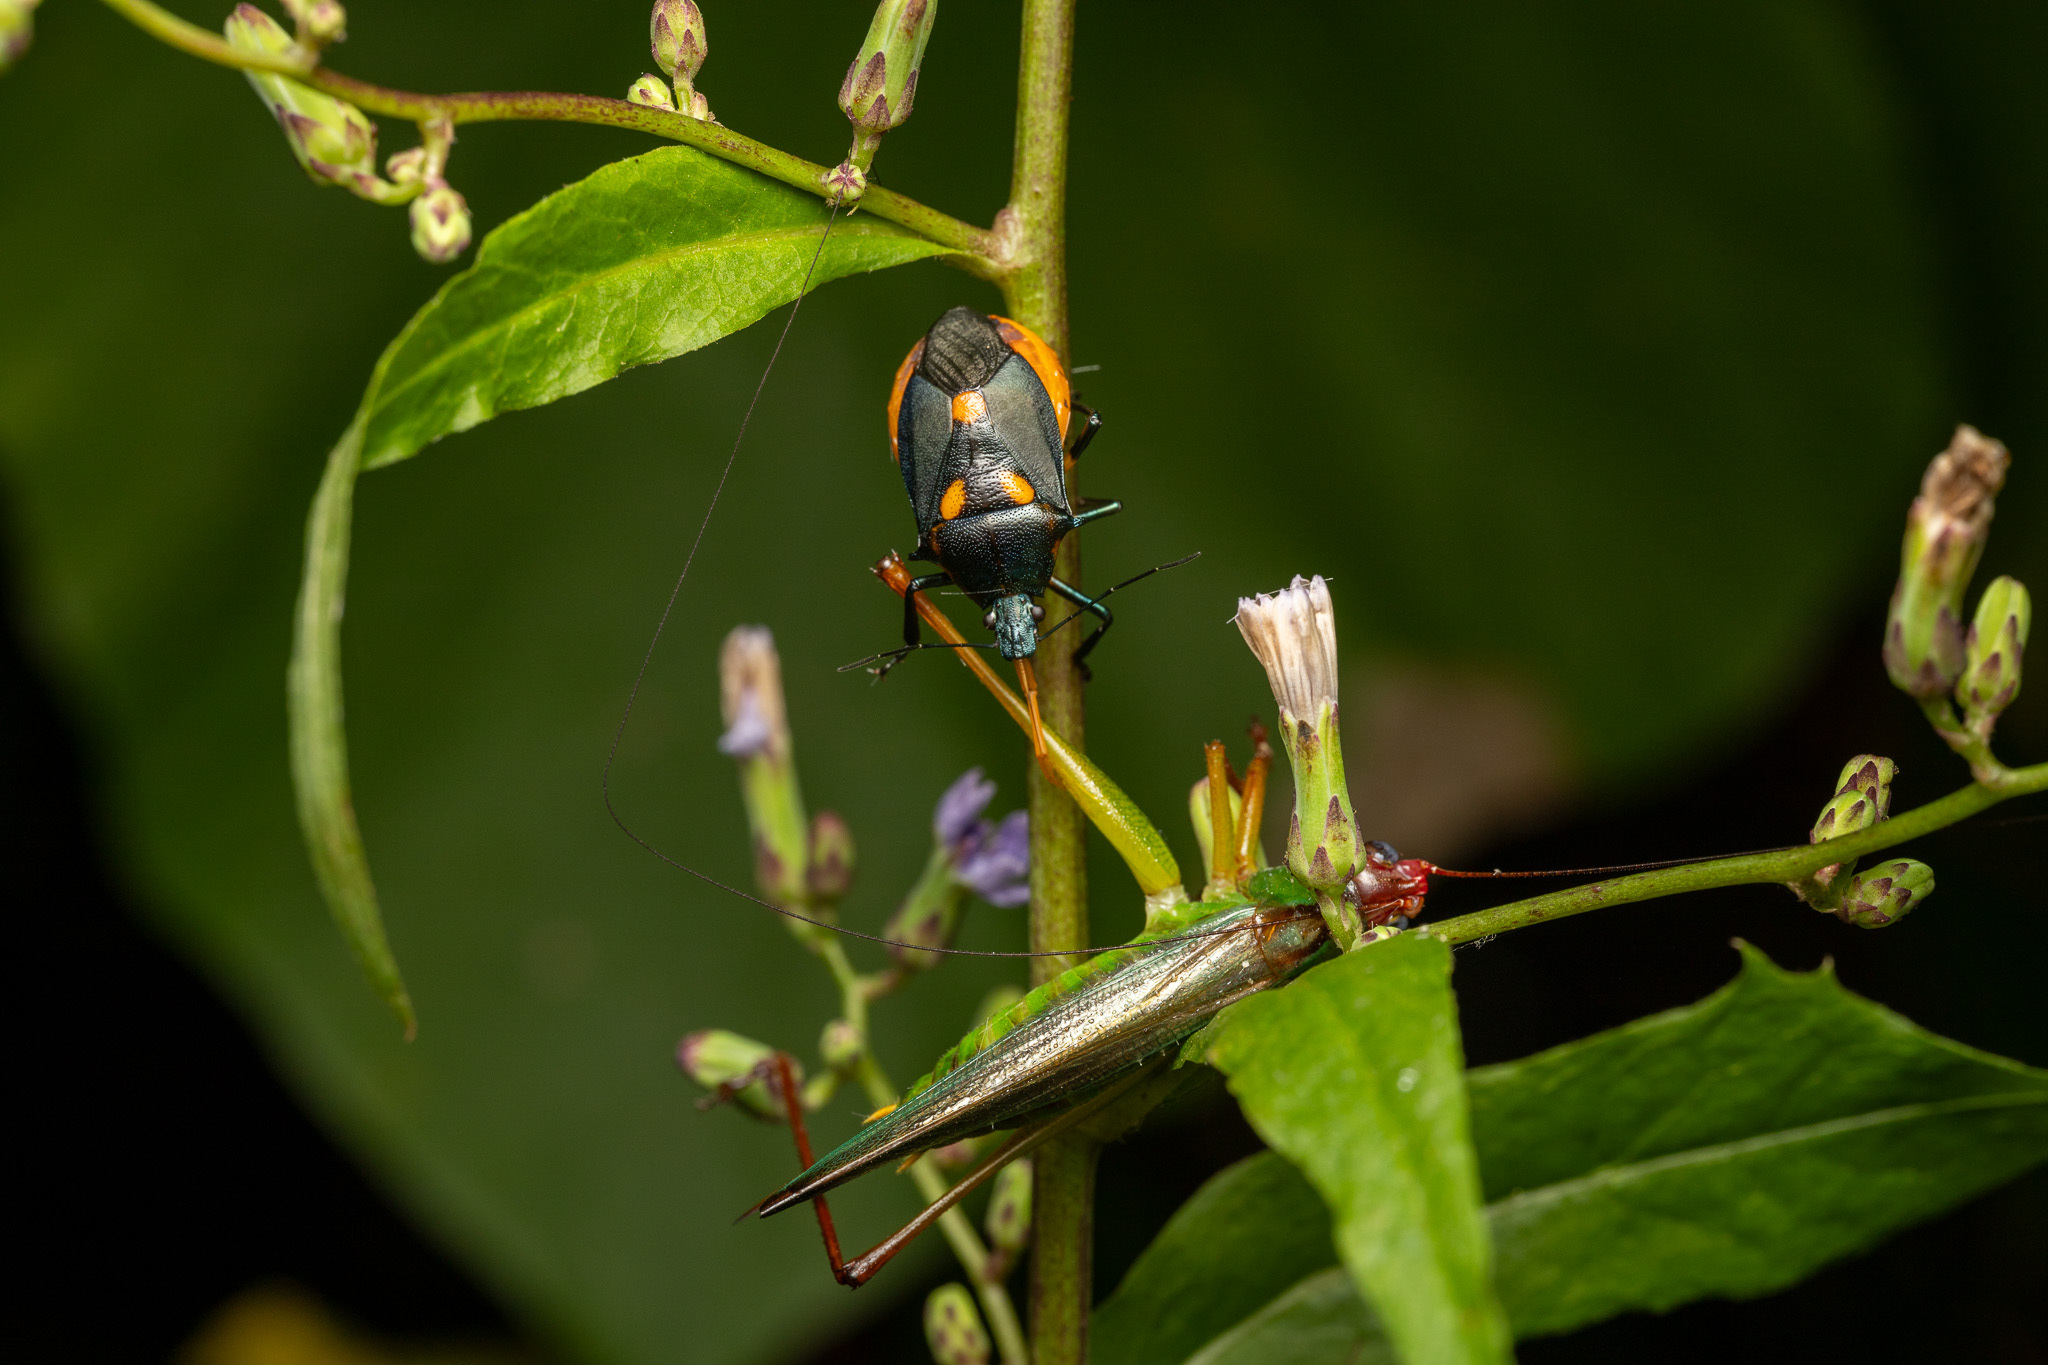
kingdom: Animalia
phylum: Arthropoda
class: Insecta
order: Hemiptera
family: Pentatomidae
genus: Euthyrhynchus
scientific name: Euthyrhynchus floridanus
